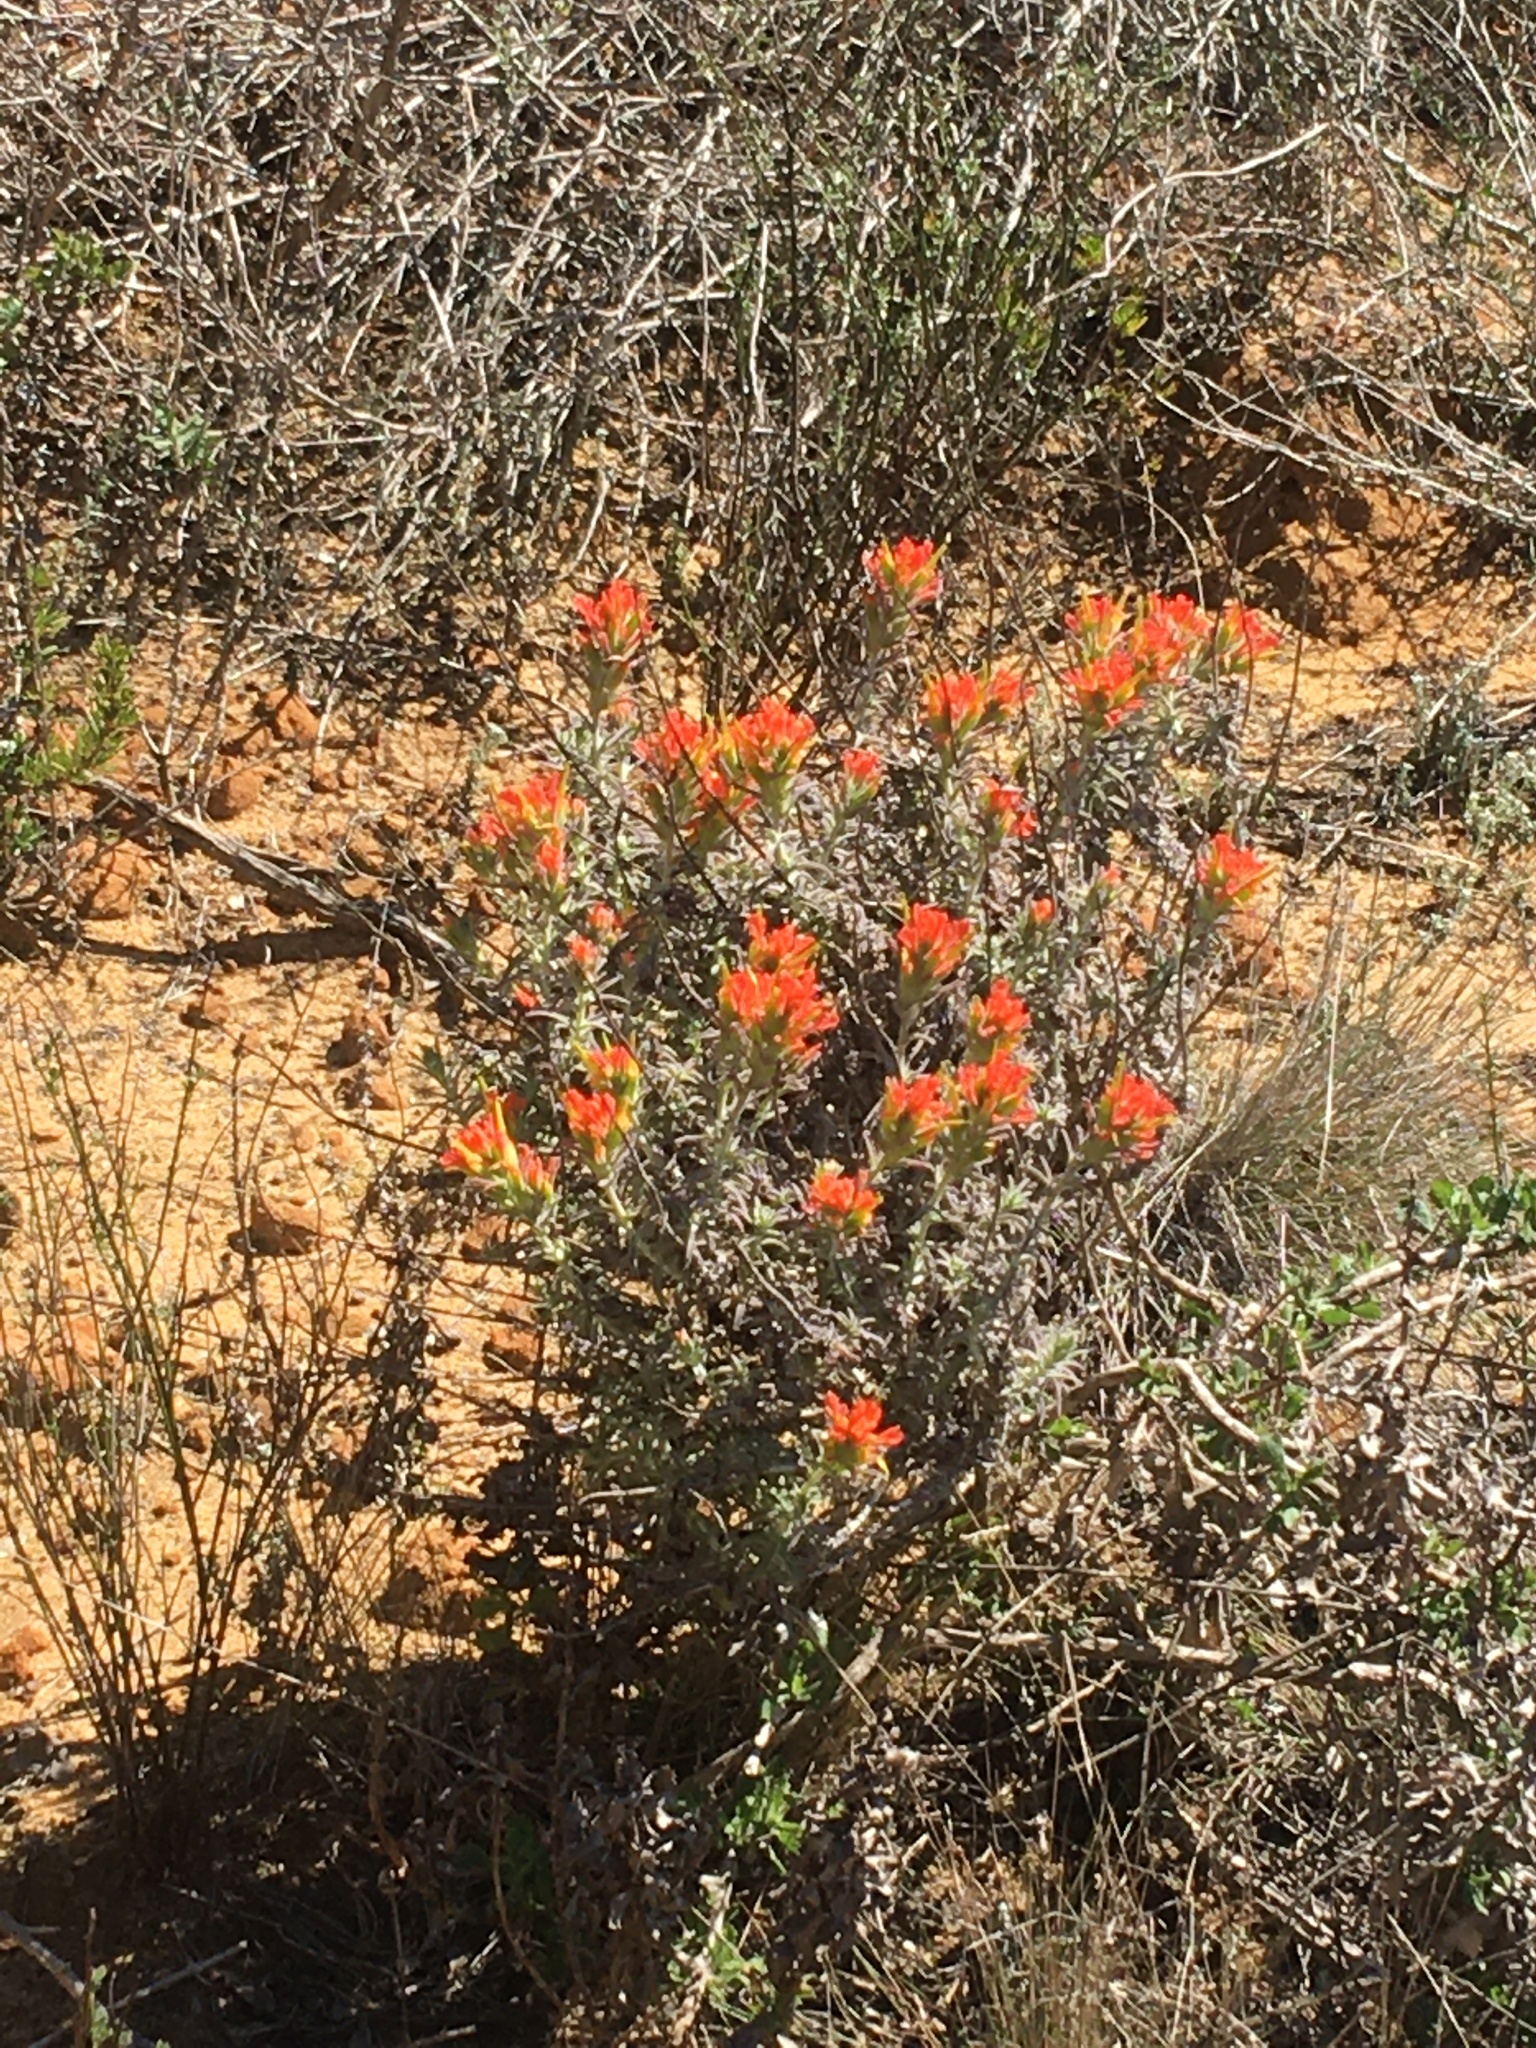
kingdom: Plantae
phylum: Tracheophyta
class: Magnoliopsida
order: Lamiales
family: Orobanchaceae
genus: Castilleja
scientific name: Castilleja foliolosa
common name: Woolly indian paintbrush
